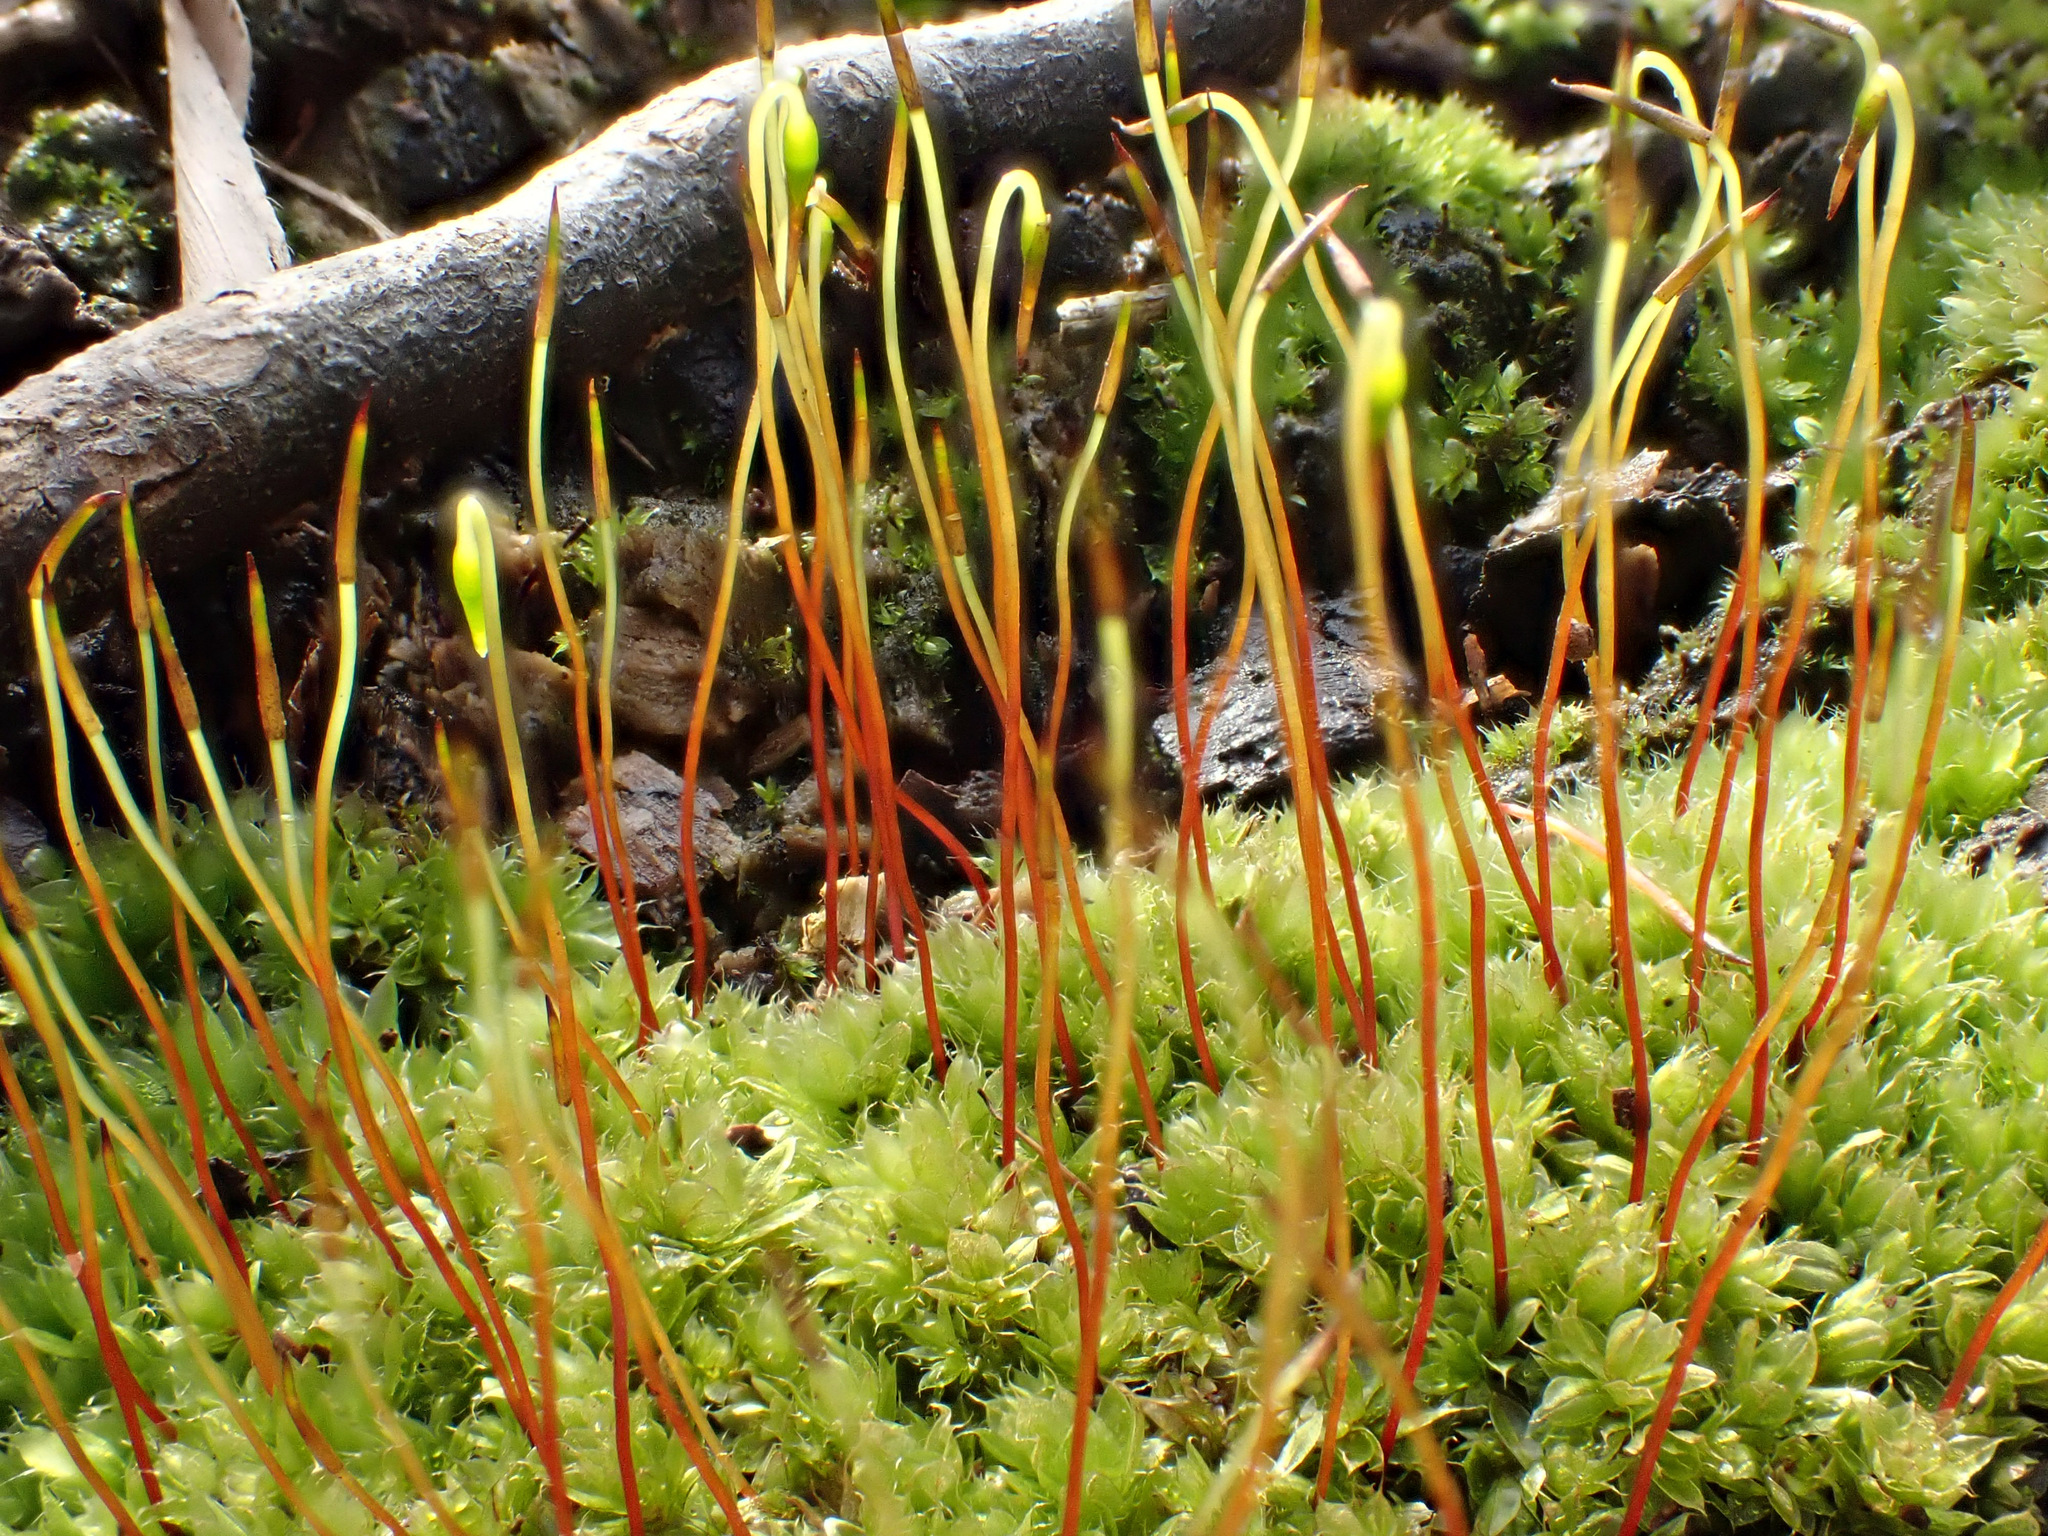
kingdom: Plantae
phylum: Bryophyta
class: Bryopsida
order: Bryales
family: Bryaceae
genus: Rosulabryum
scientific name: Rosulabryum capillare
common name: Capillary thread-moss
